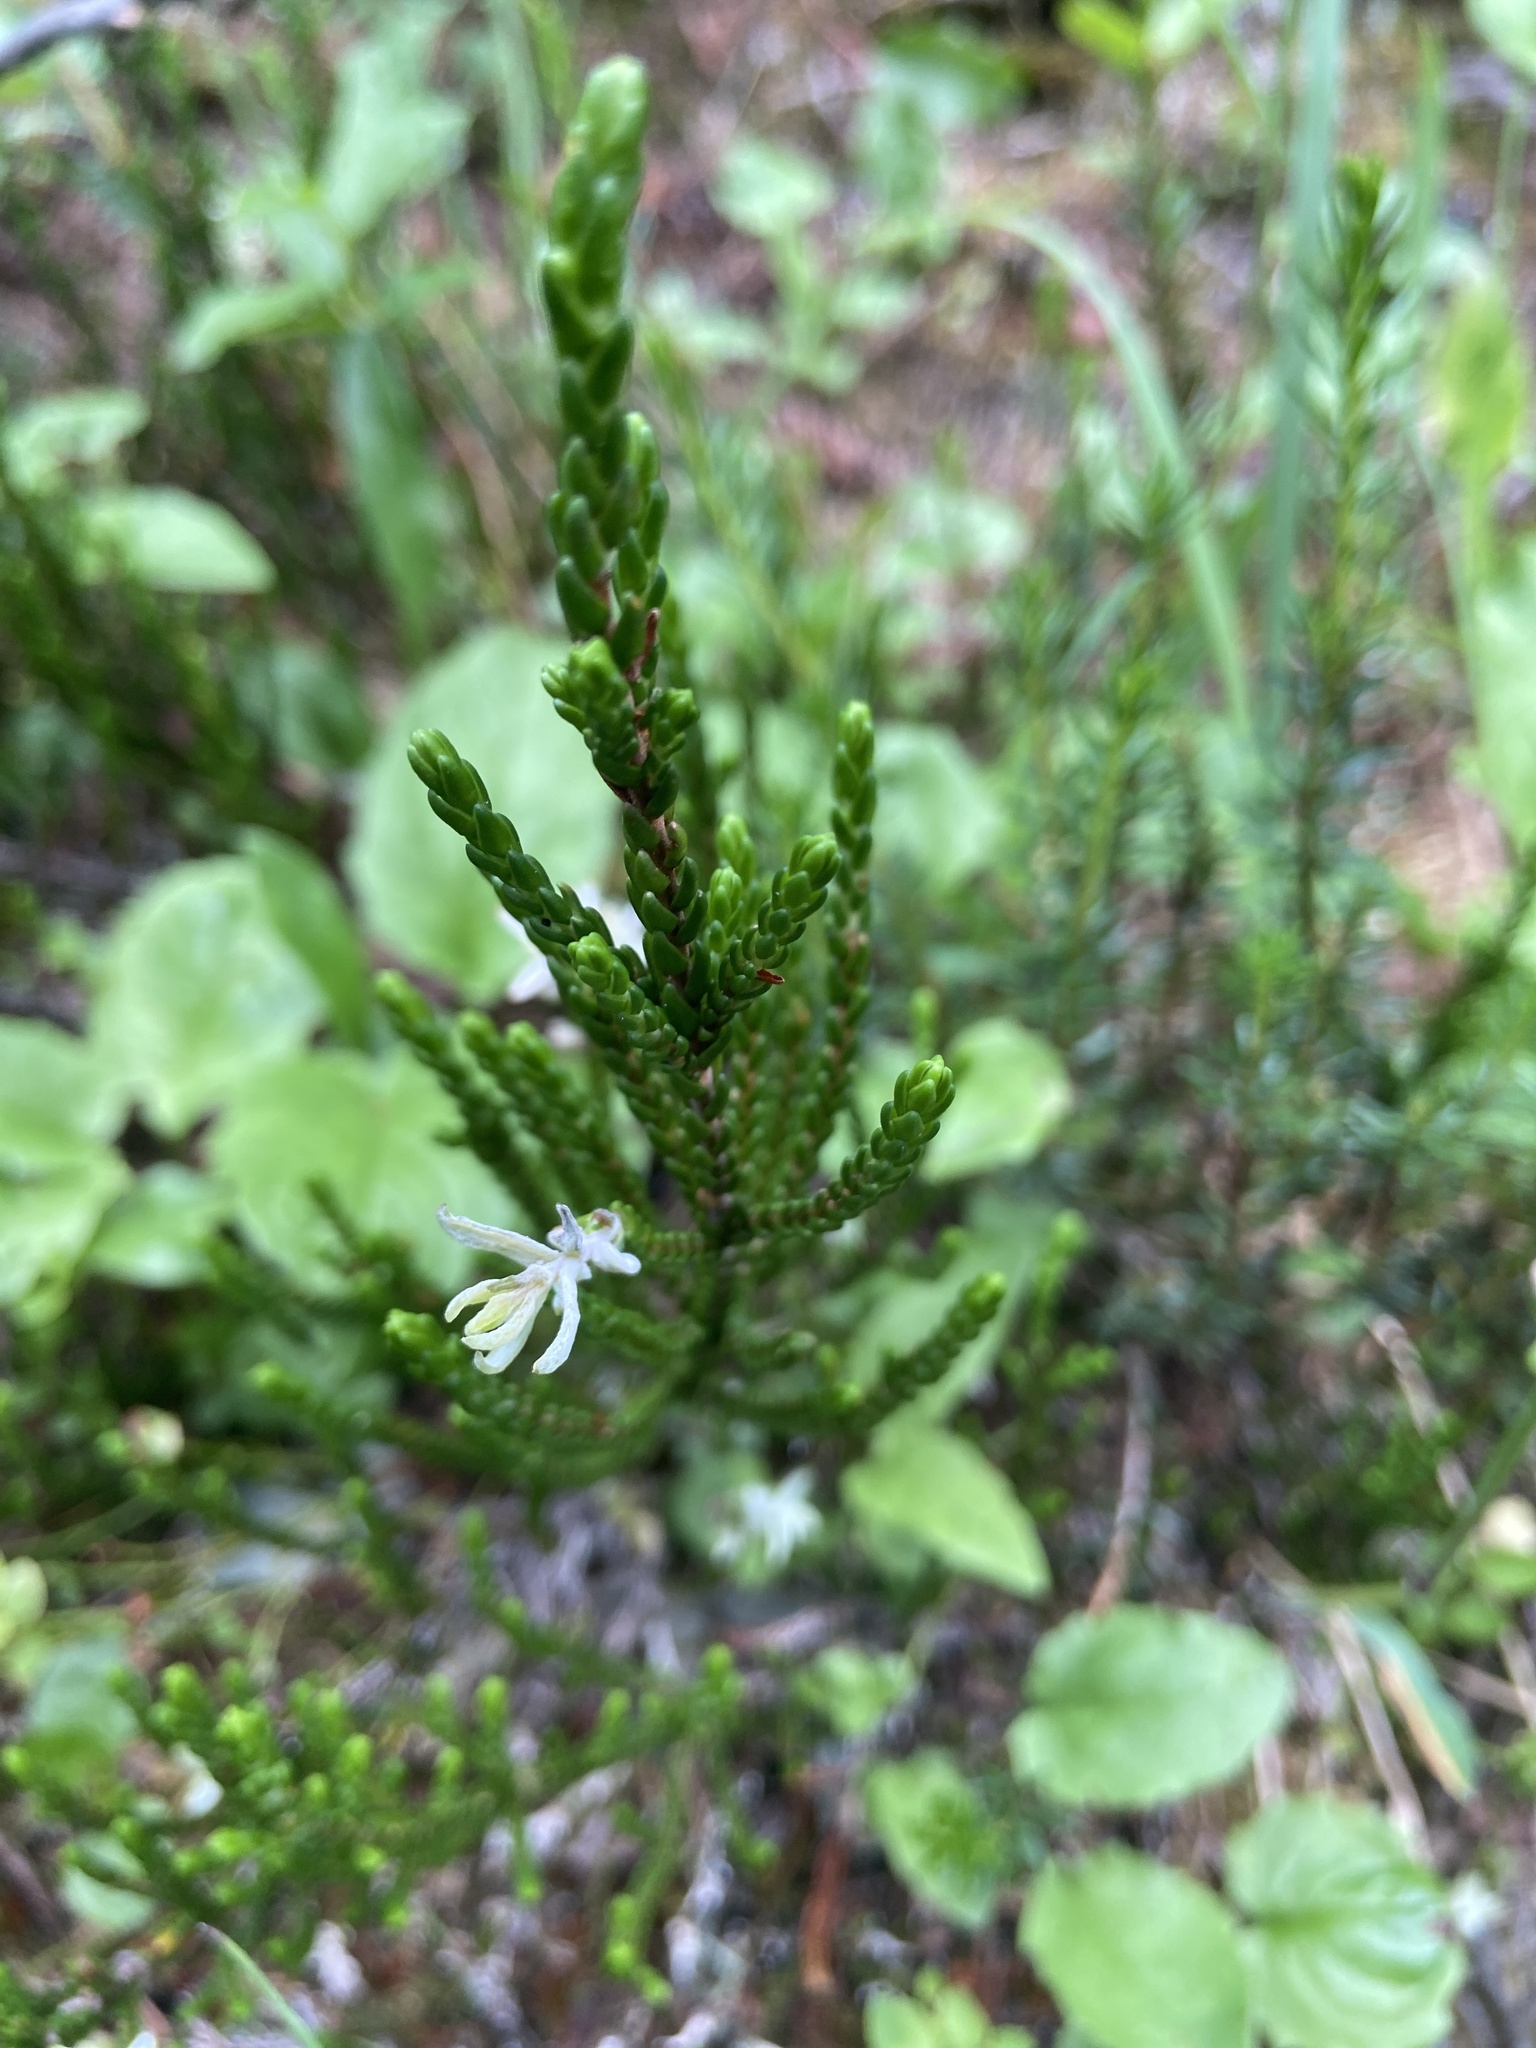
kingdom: Plantae
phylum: Tracheophyta
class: Magnoliopsida
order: Ericales
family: Ericaceae
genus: Cassiope
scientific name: Cassiope mertensiana
